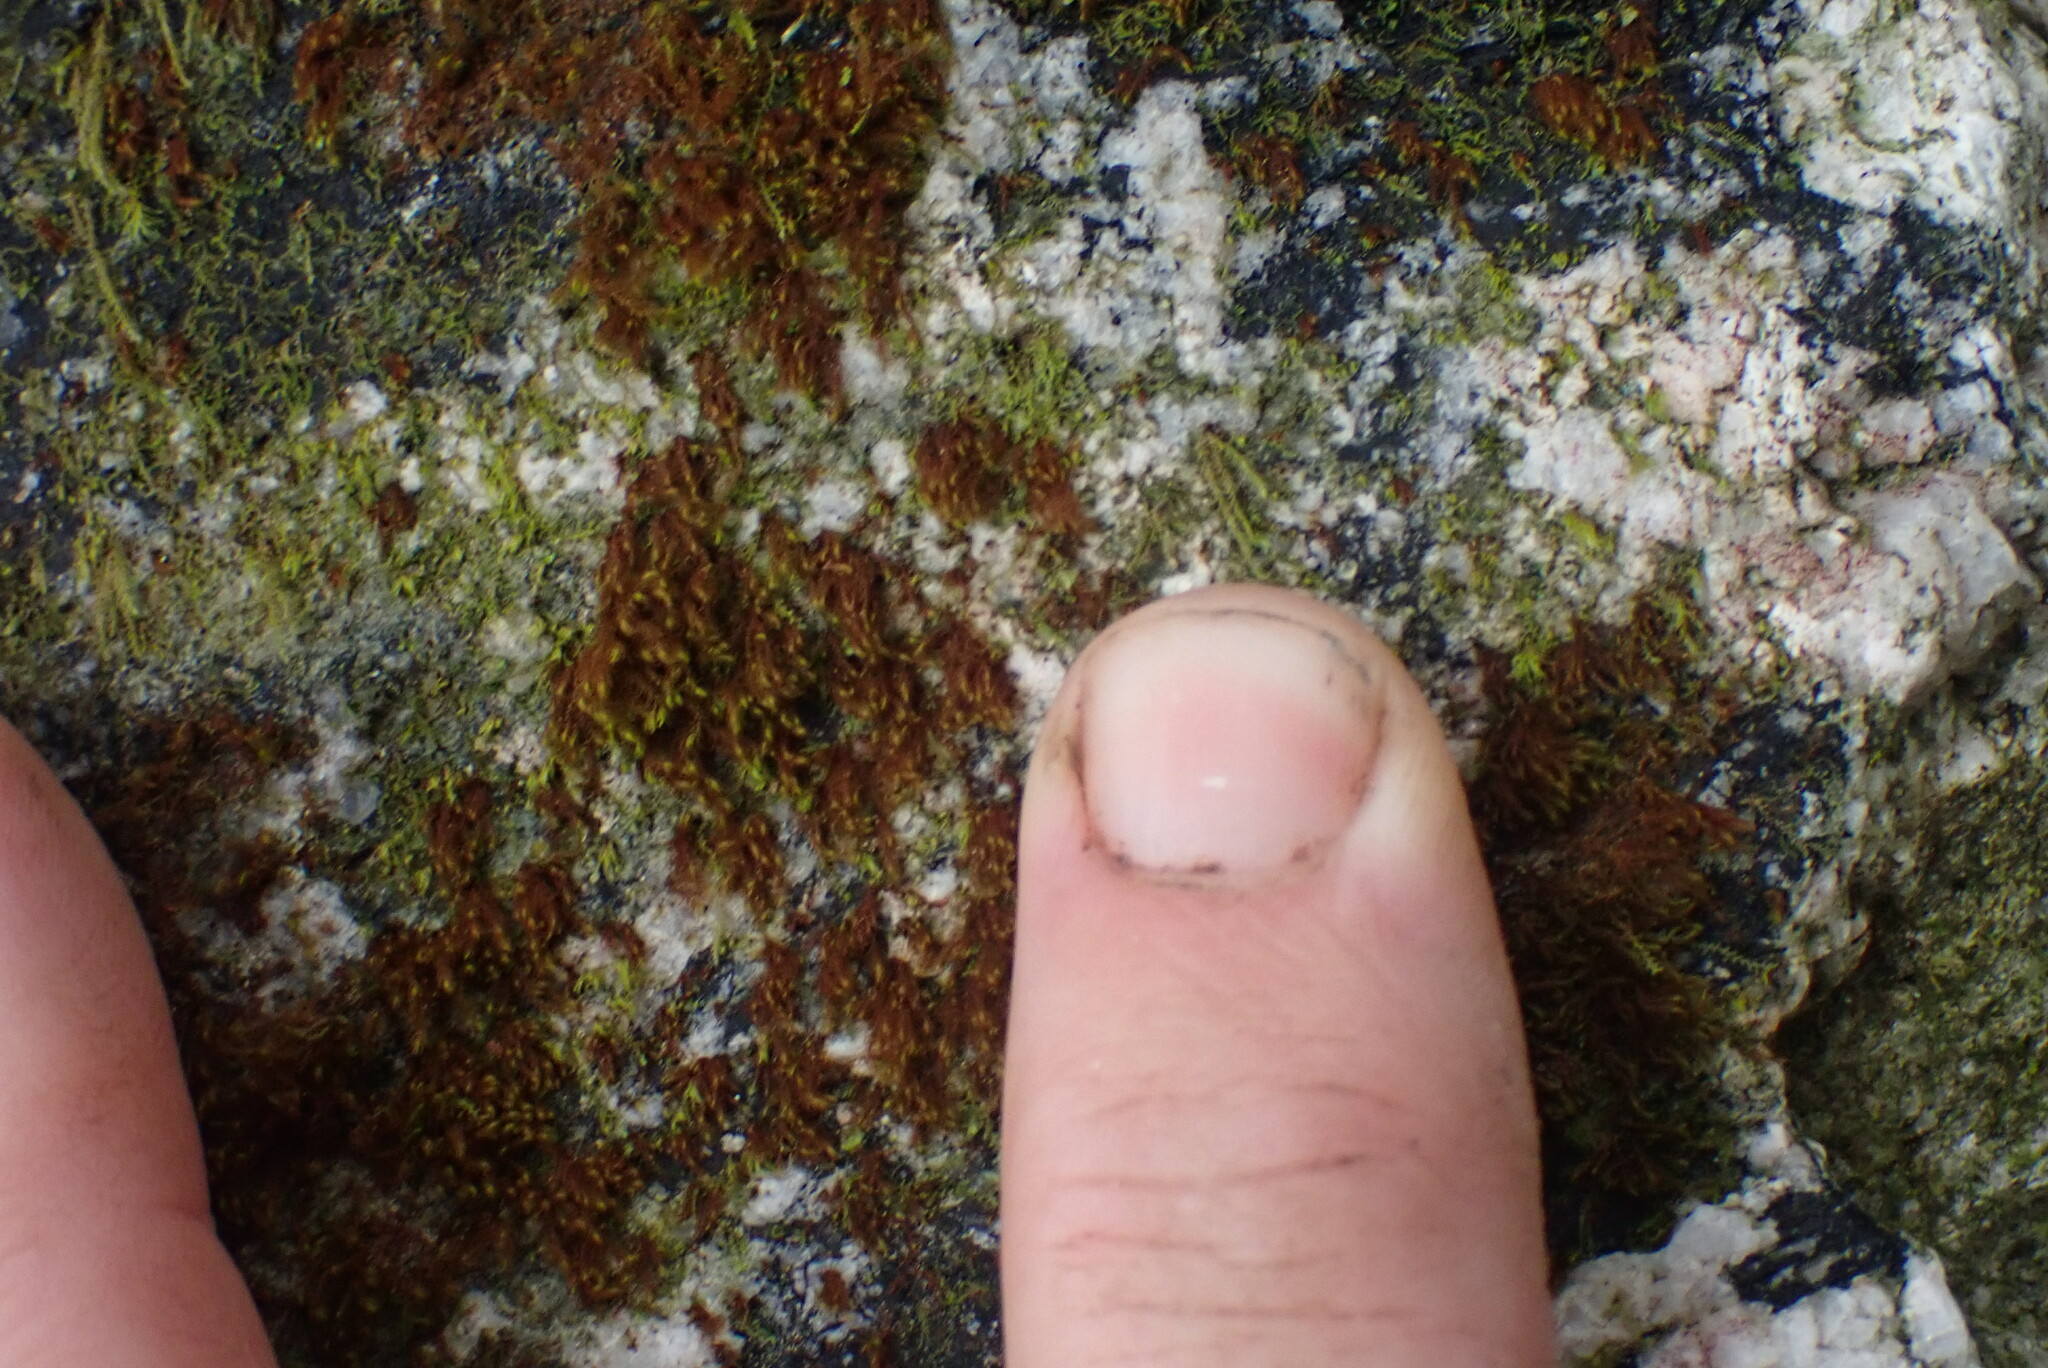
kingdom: Plantae
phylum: Bryophyta
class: Andreaeopsida
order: Andreaeales
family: Andreaeaceae
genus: Andreaea
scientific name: Andreaea nivalis
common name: Snow rock moss
